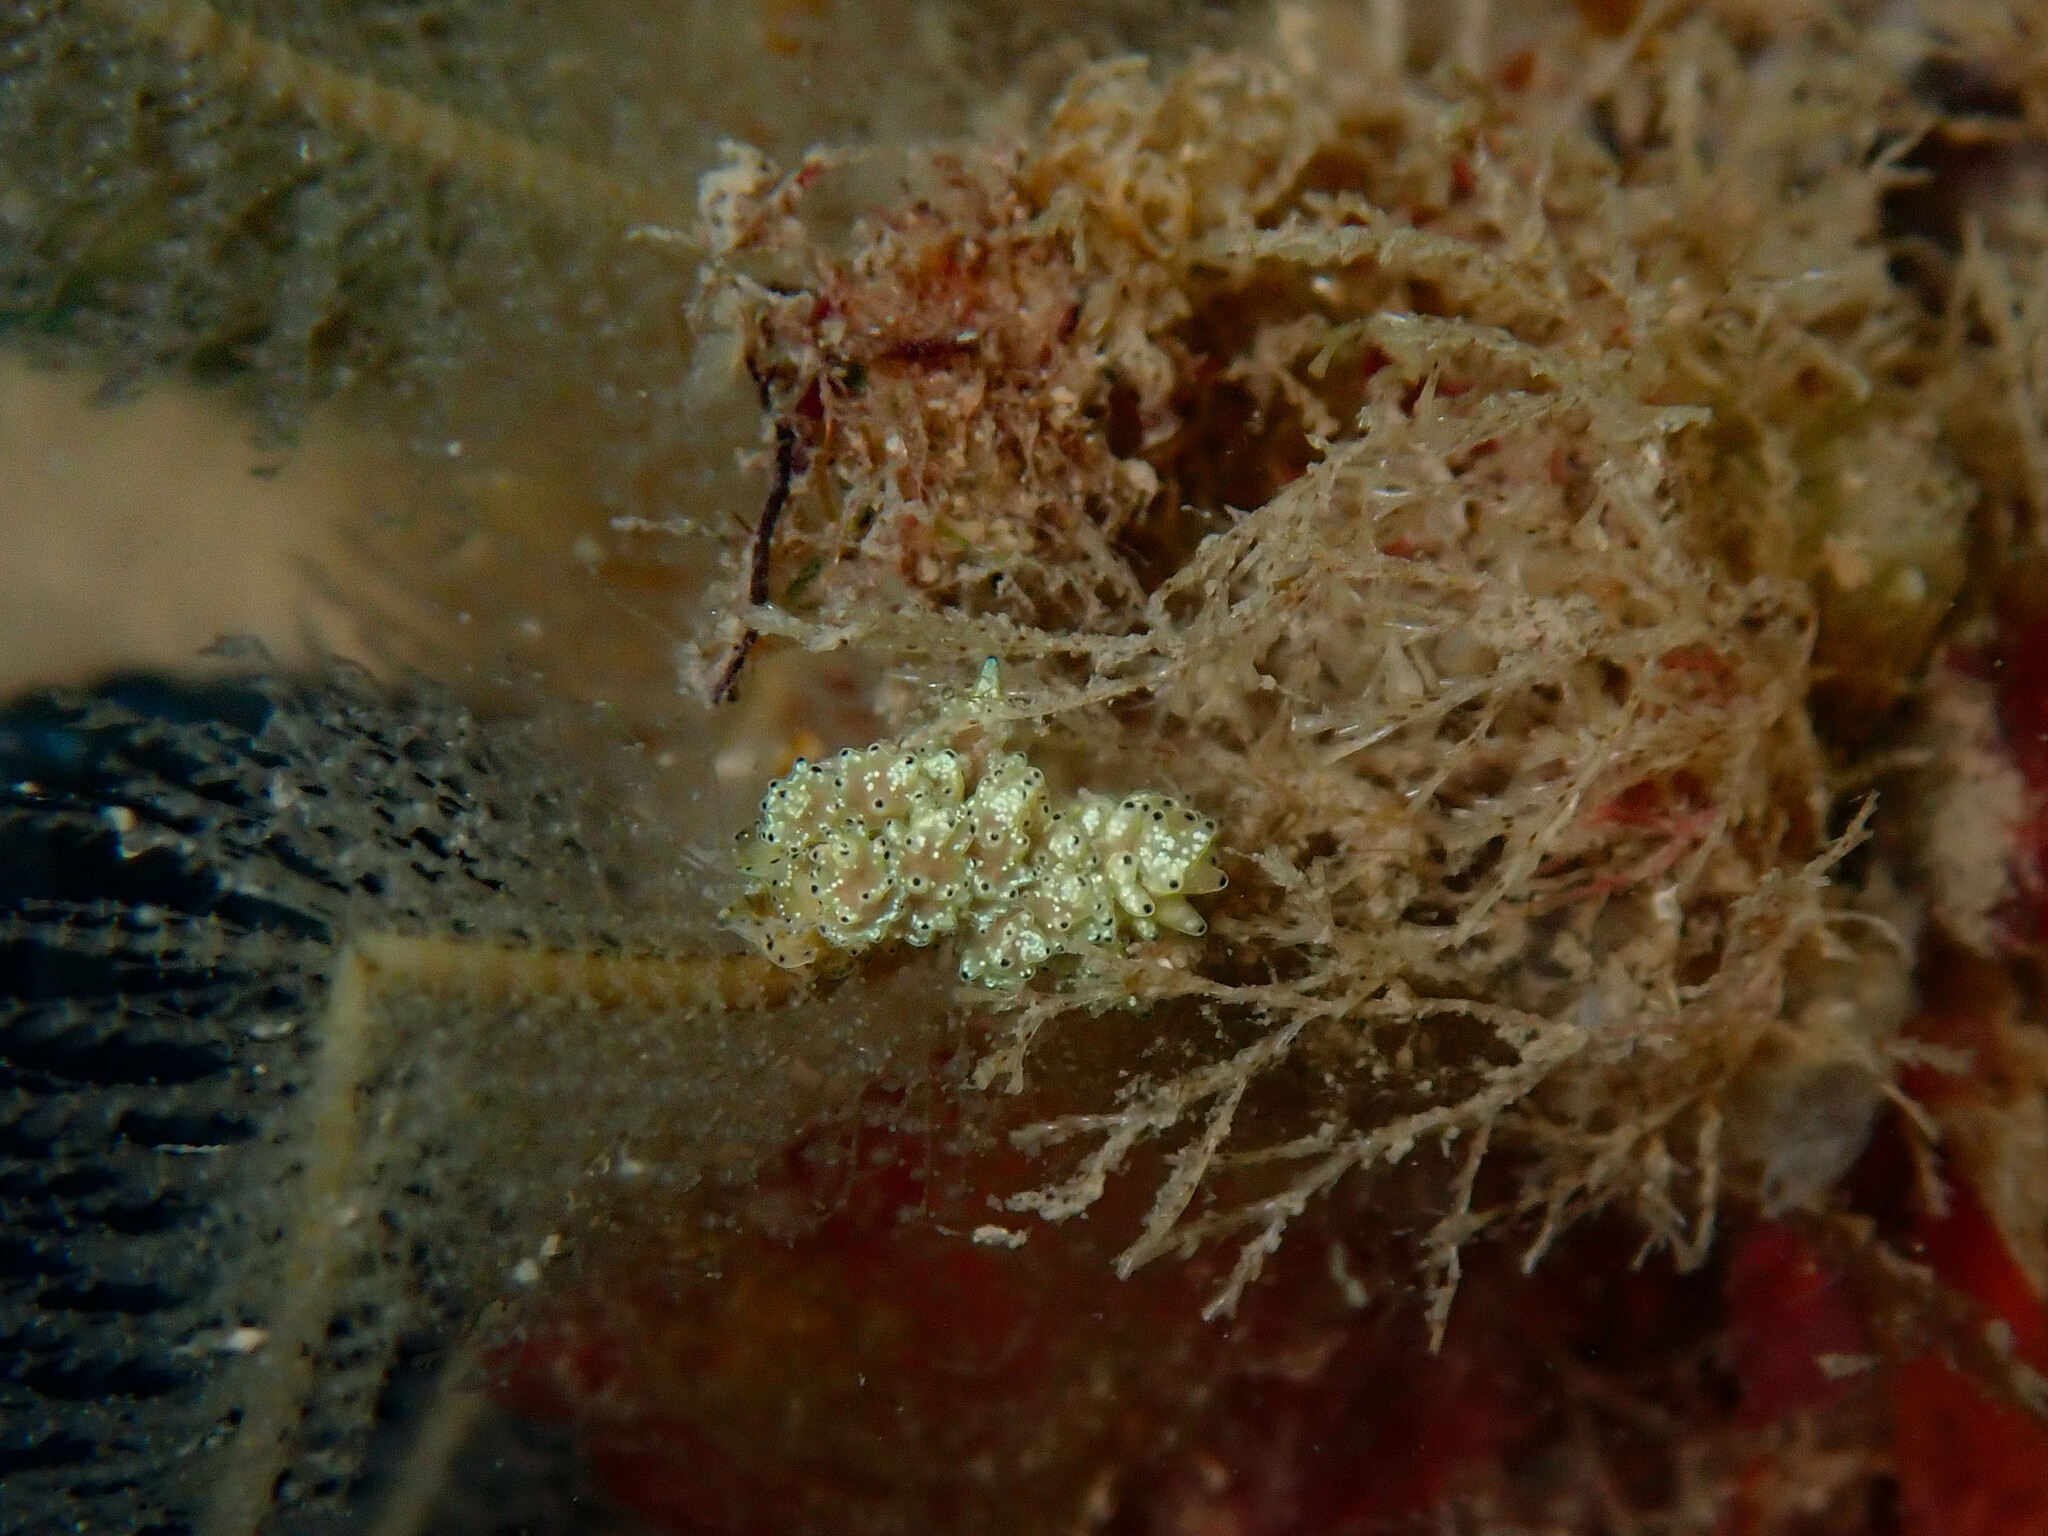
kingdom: Animalia
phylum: Mollusca
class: Gastropoda
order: Nudibranchia
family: Dotidae
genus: Doto
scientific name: Doto pinnatifida
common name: Feathered doto
